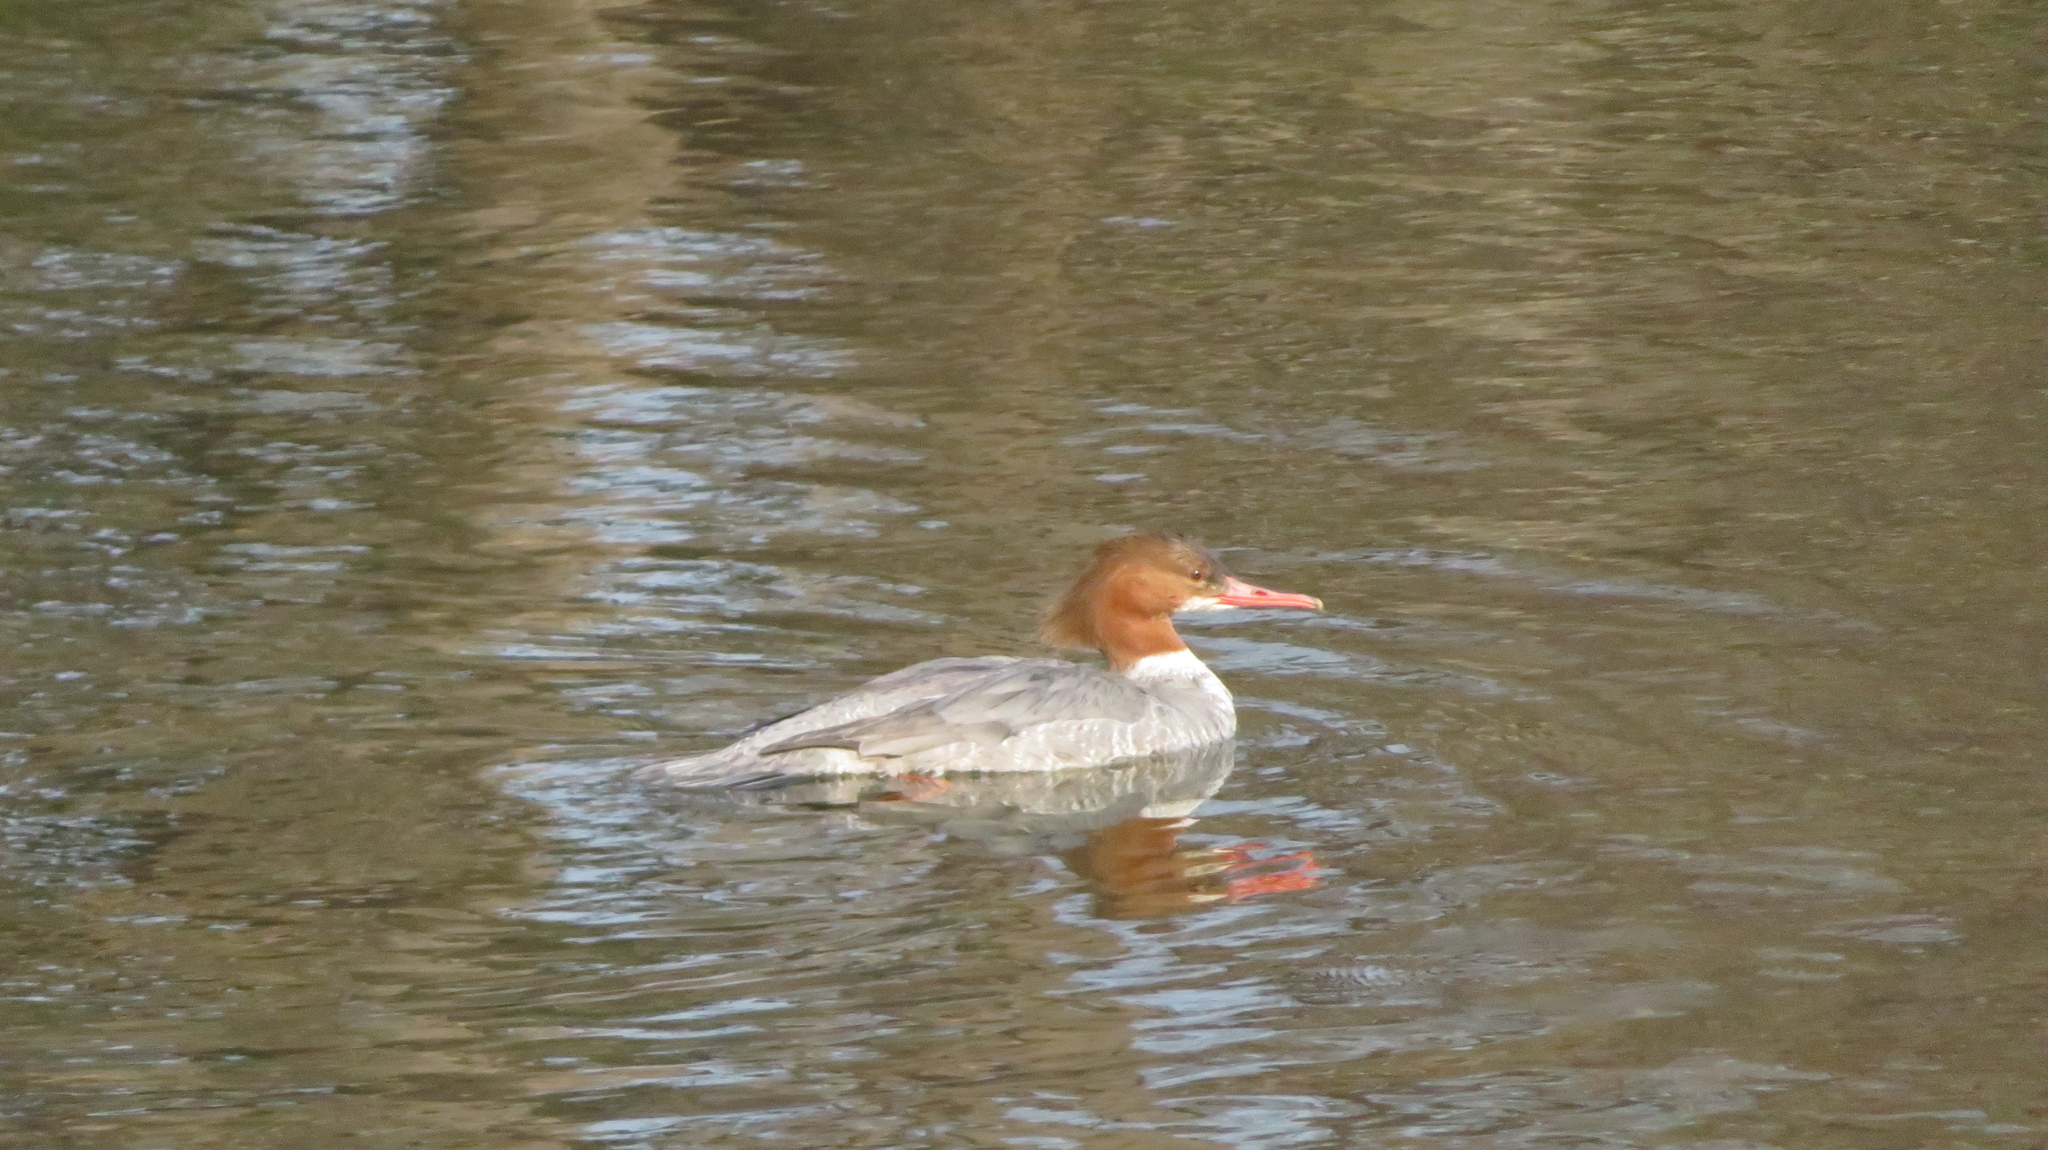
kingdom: Animalia
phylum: Chordata
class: Aves
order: Anseriformes
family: Anatidae
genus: Mergus
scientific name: Mergus merganser
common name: Common merganser
